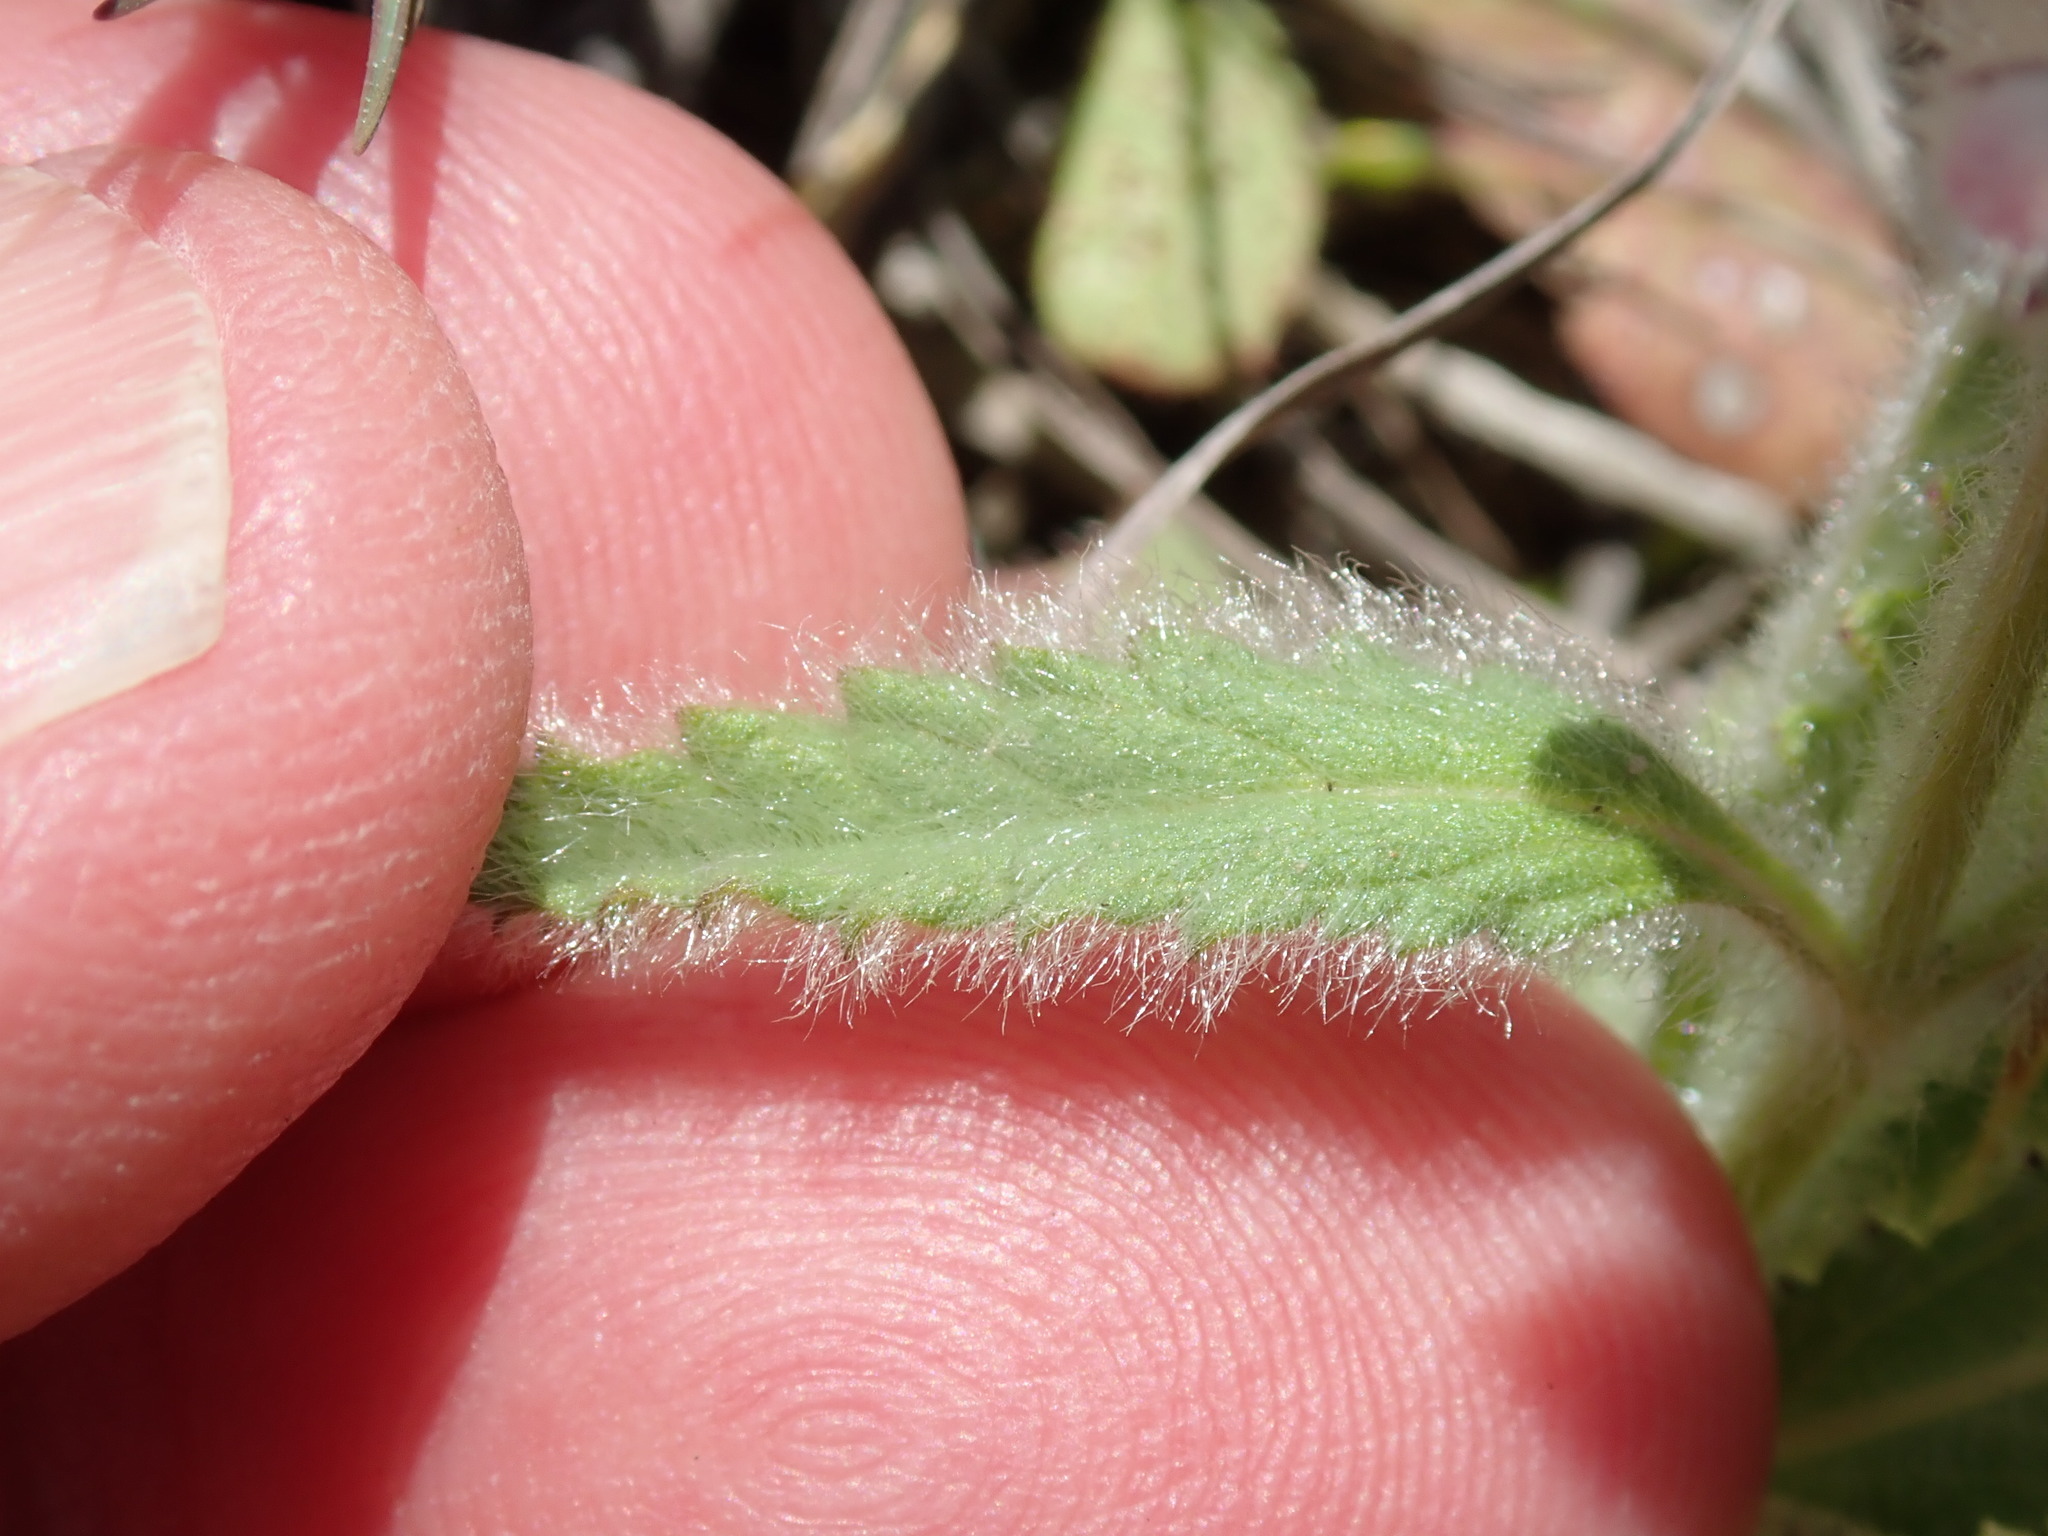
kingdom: Plantae
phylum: Tracheophyta
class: Magnoliopsida
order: Lamiales
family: Lamiaceae
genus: Stachys
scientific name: Stachys ajugoides
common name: Hedge-nettle
